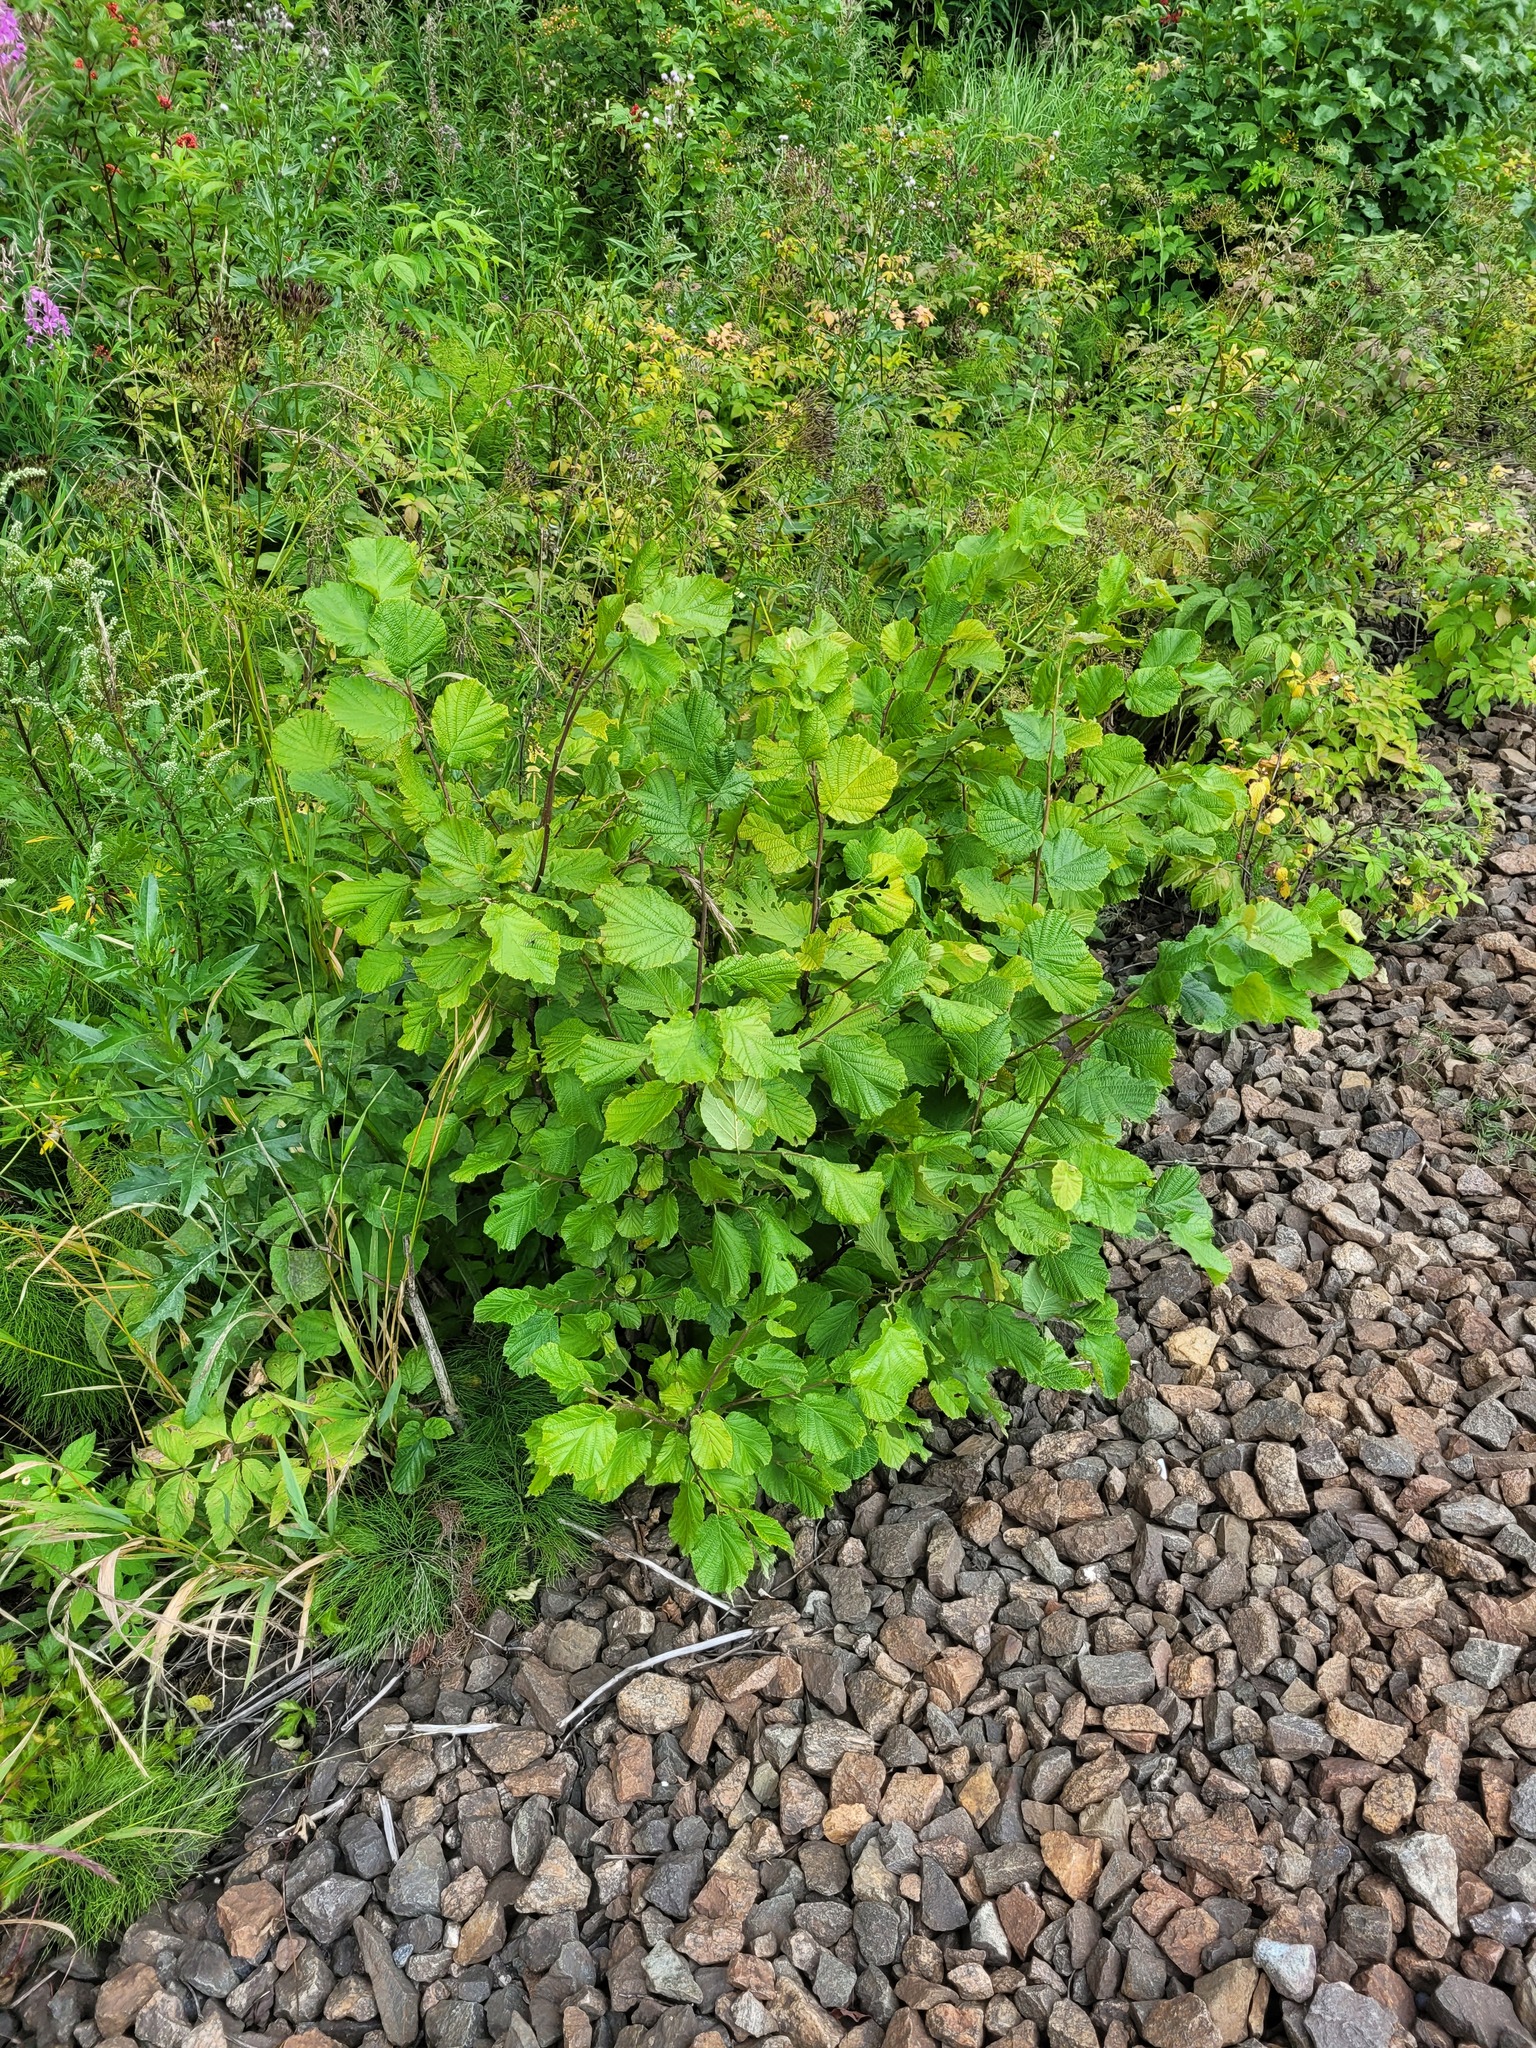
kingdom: Plantae
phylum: Tracheophyta
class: Magnoliopsida
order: Fagales
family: Betulaceae
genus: Corylus
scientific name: Corylus avellana
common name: European hazel
